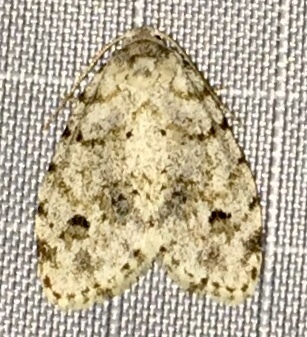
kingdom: Animalia
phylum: Arthropoda
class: Insecta
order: Lepidoptera
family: Erebidae
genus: Clemensia
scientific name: Clemensia albata
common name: Little white lichen moth
